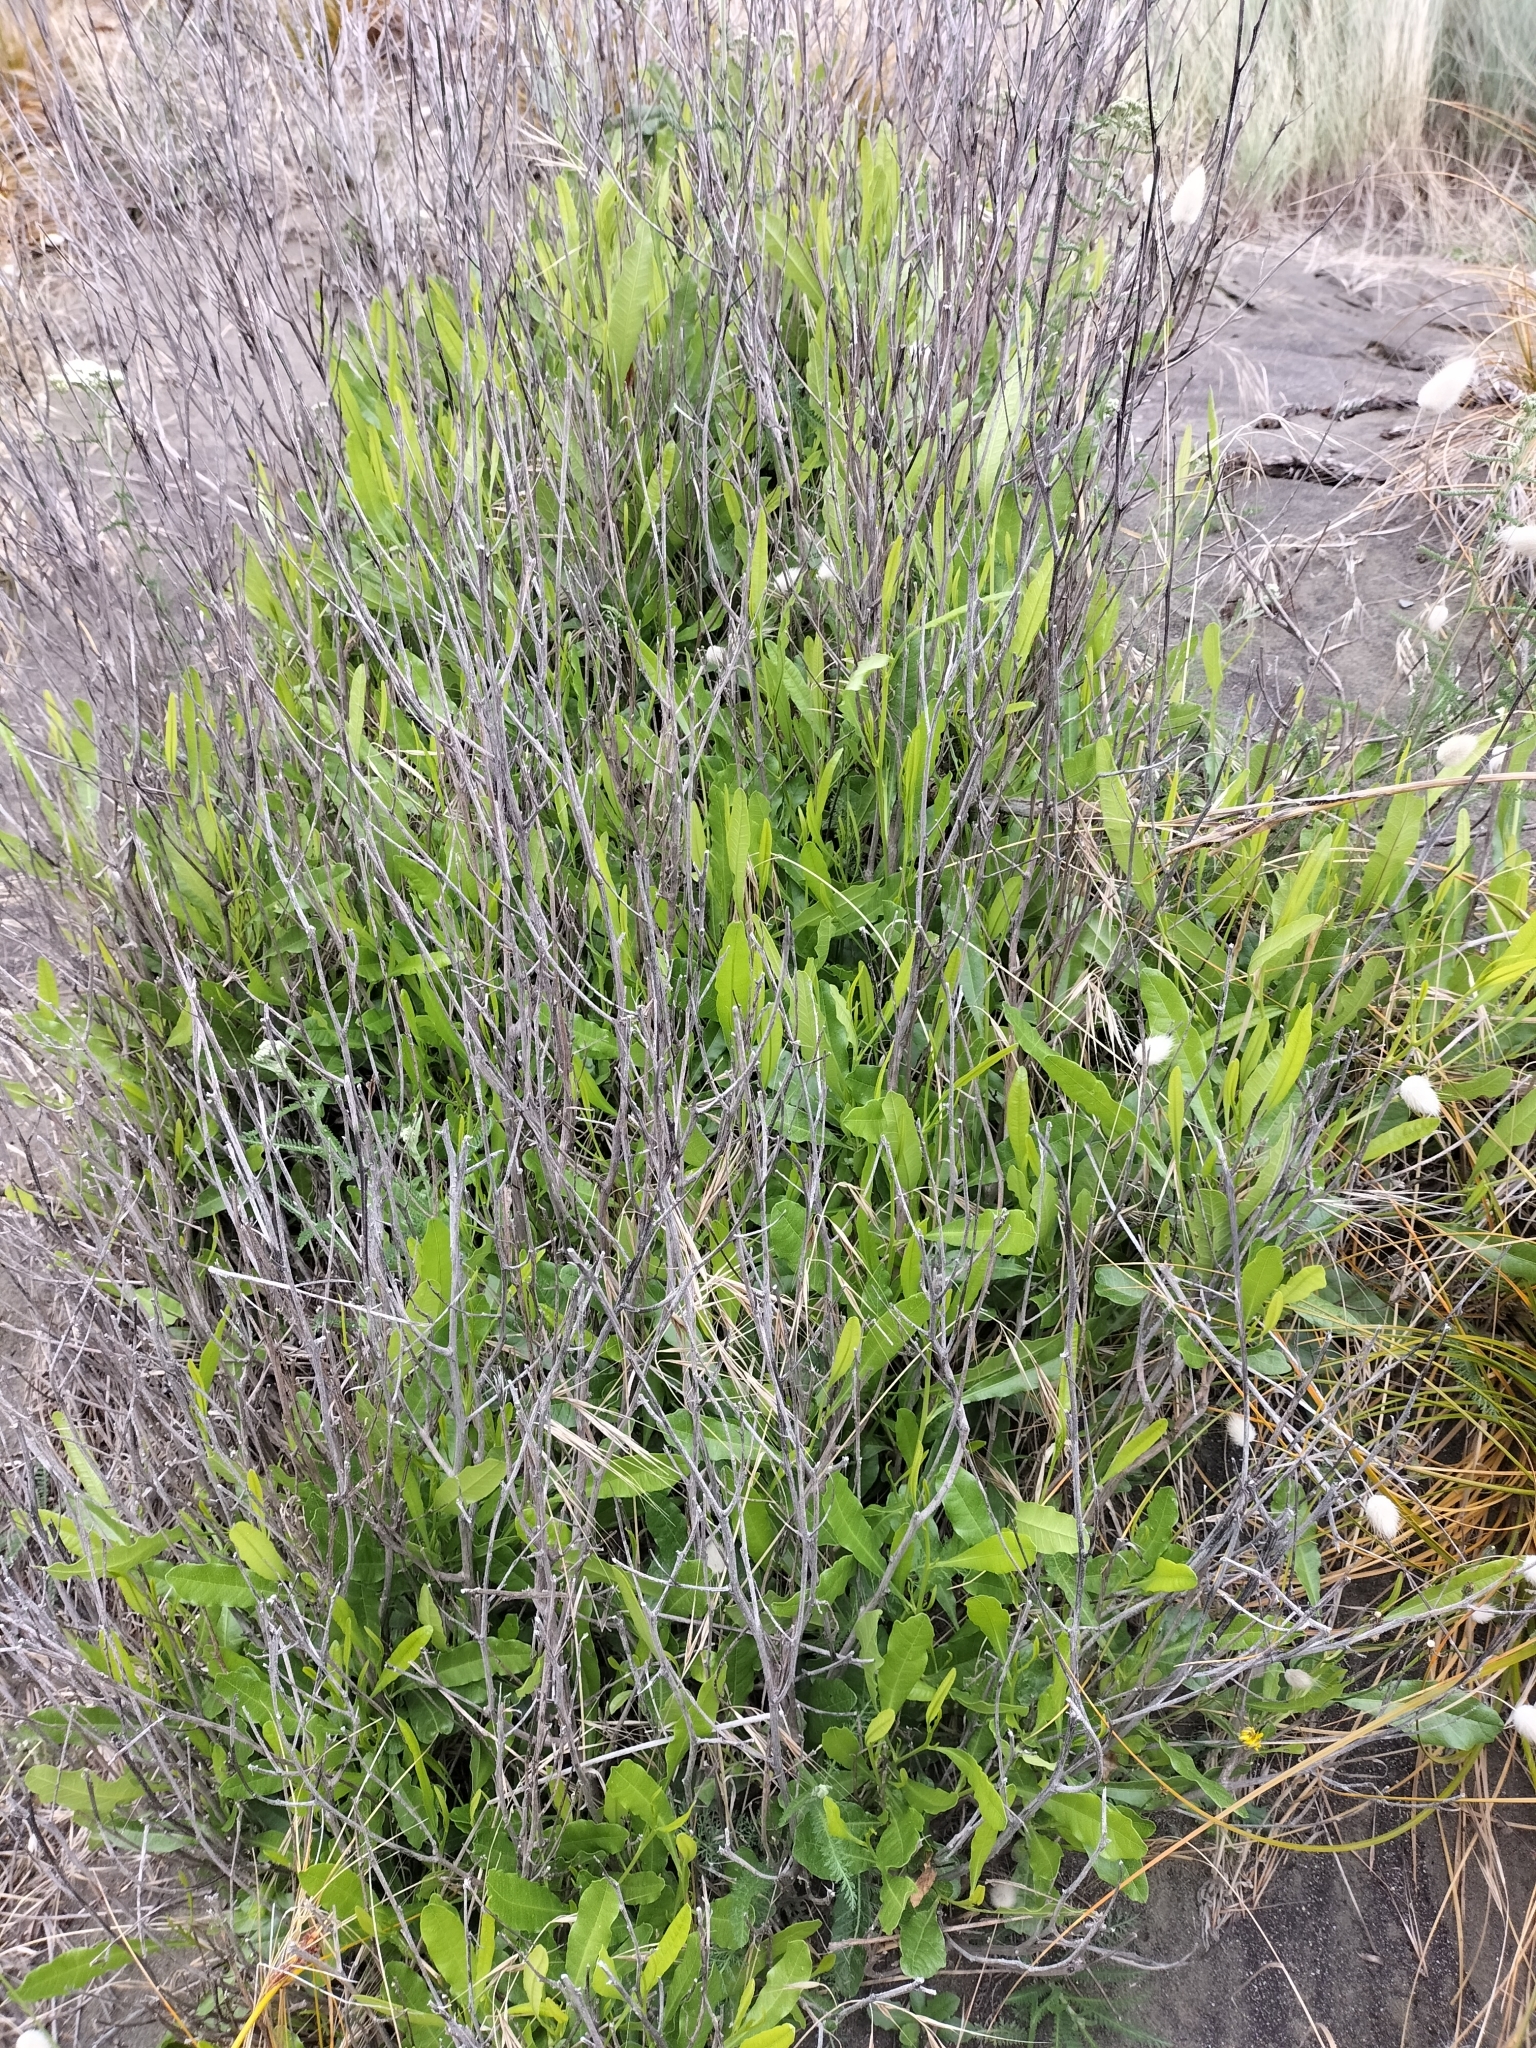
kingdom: Plantae
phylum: Tracheophyta
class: Magnoliopsida
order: Sapindales
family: Sapindaceae
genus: Dodonaea
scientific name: Dodonaea viscosa
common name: Hopbush
